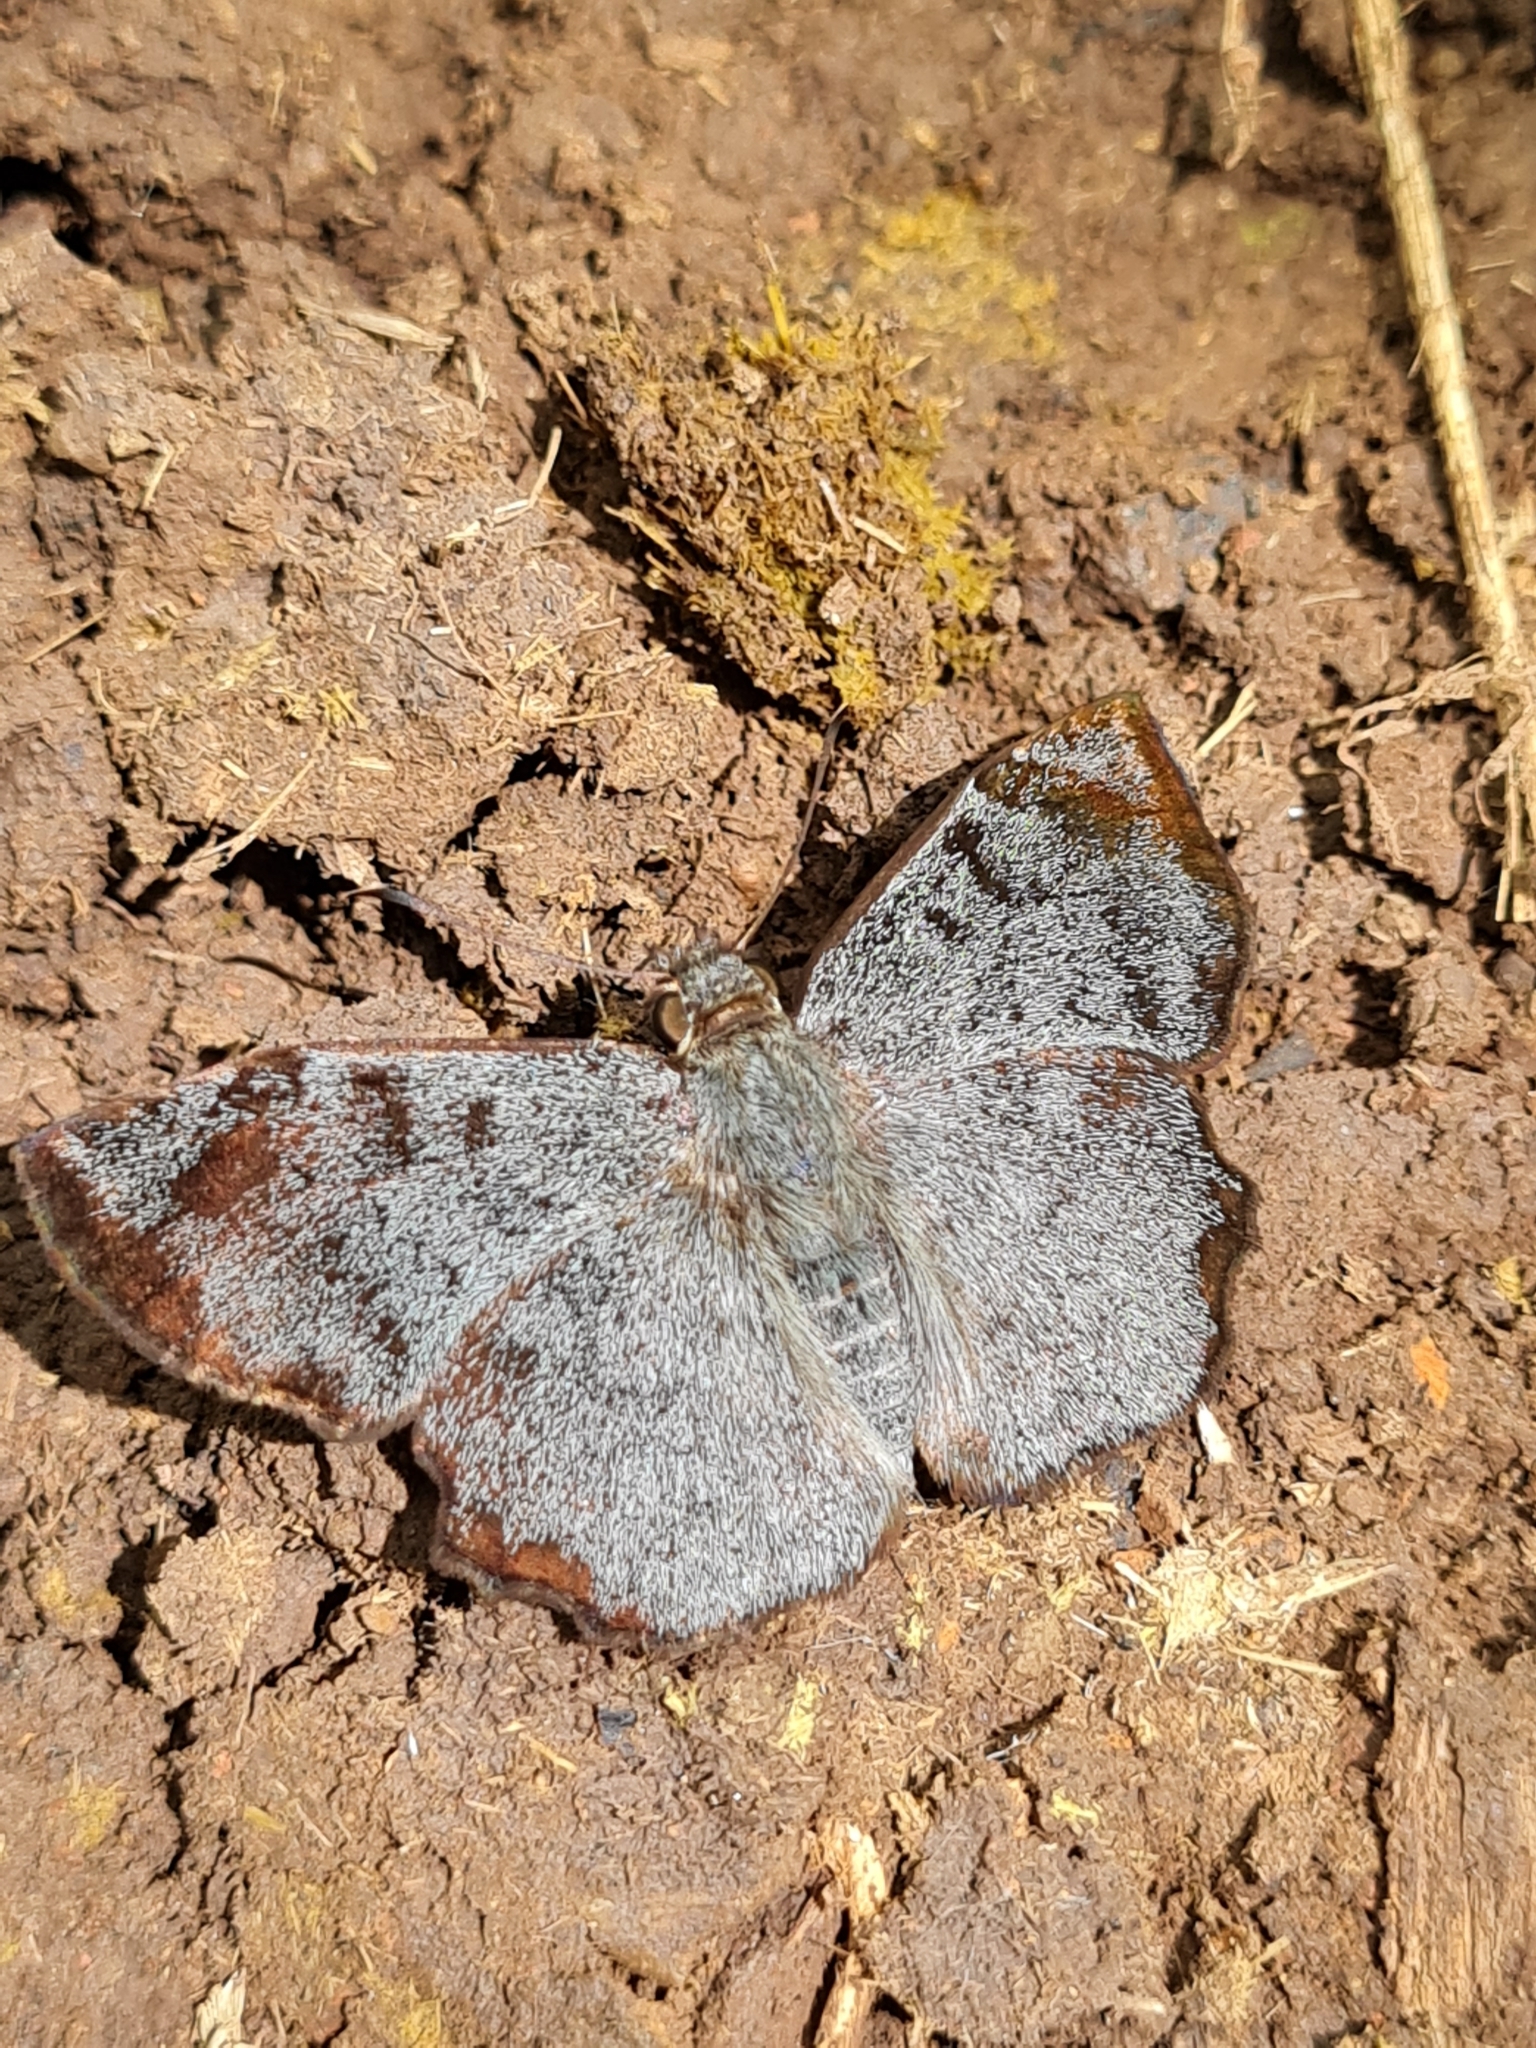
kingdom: Animalia
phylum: Arthropoda
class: Insecta
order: Lepidoptera
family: Hesperiidae
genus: Antigonus
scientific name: Antigonus erosus
